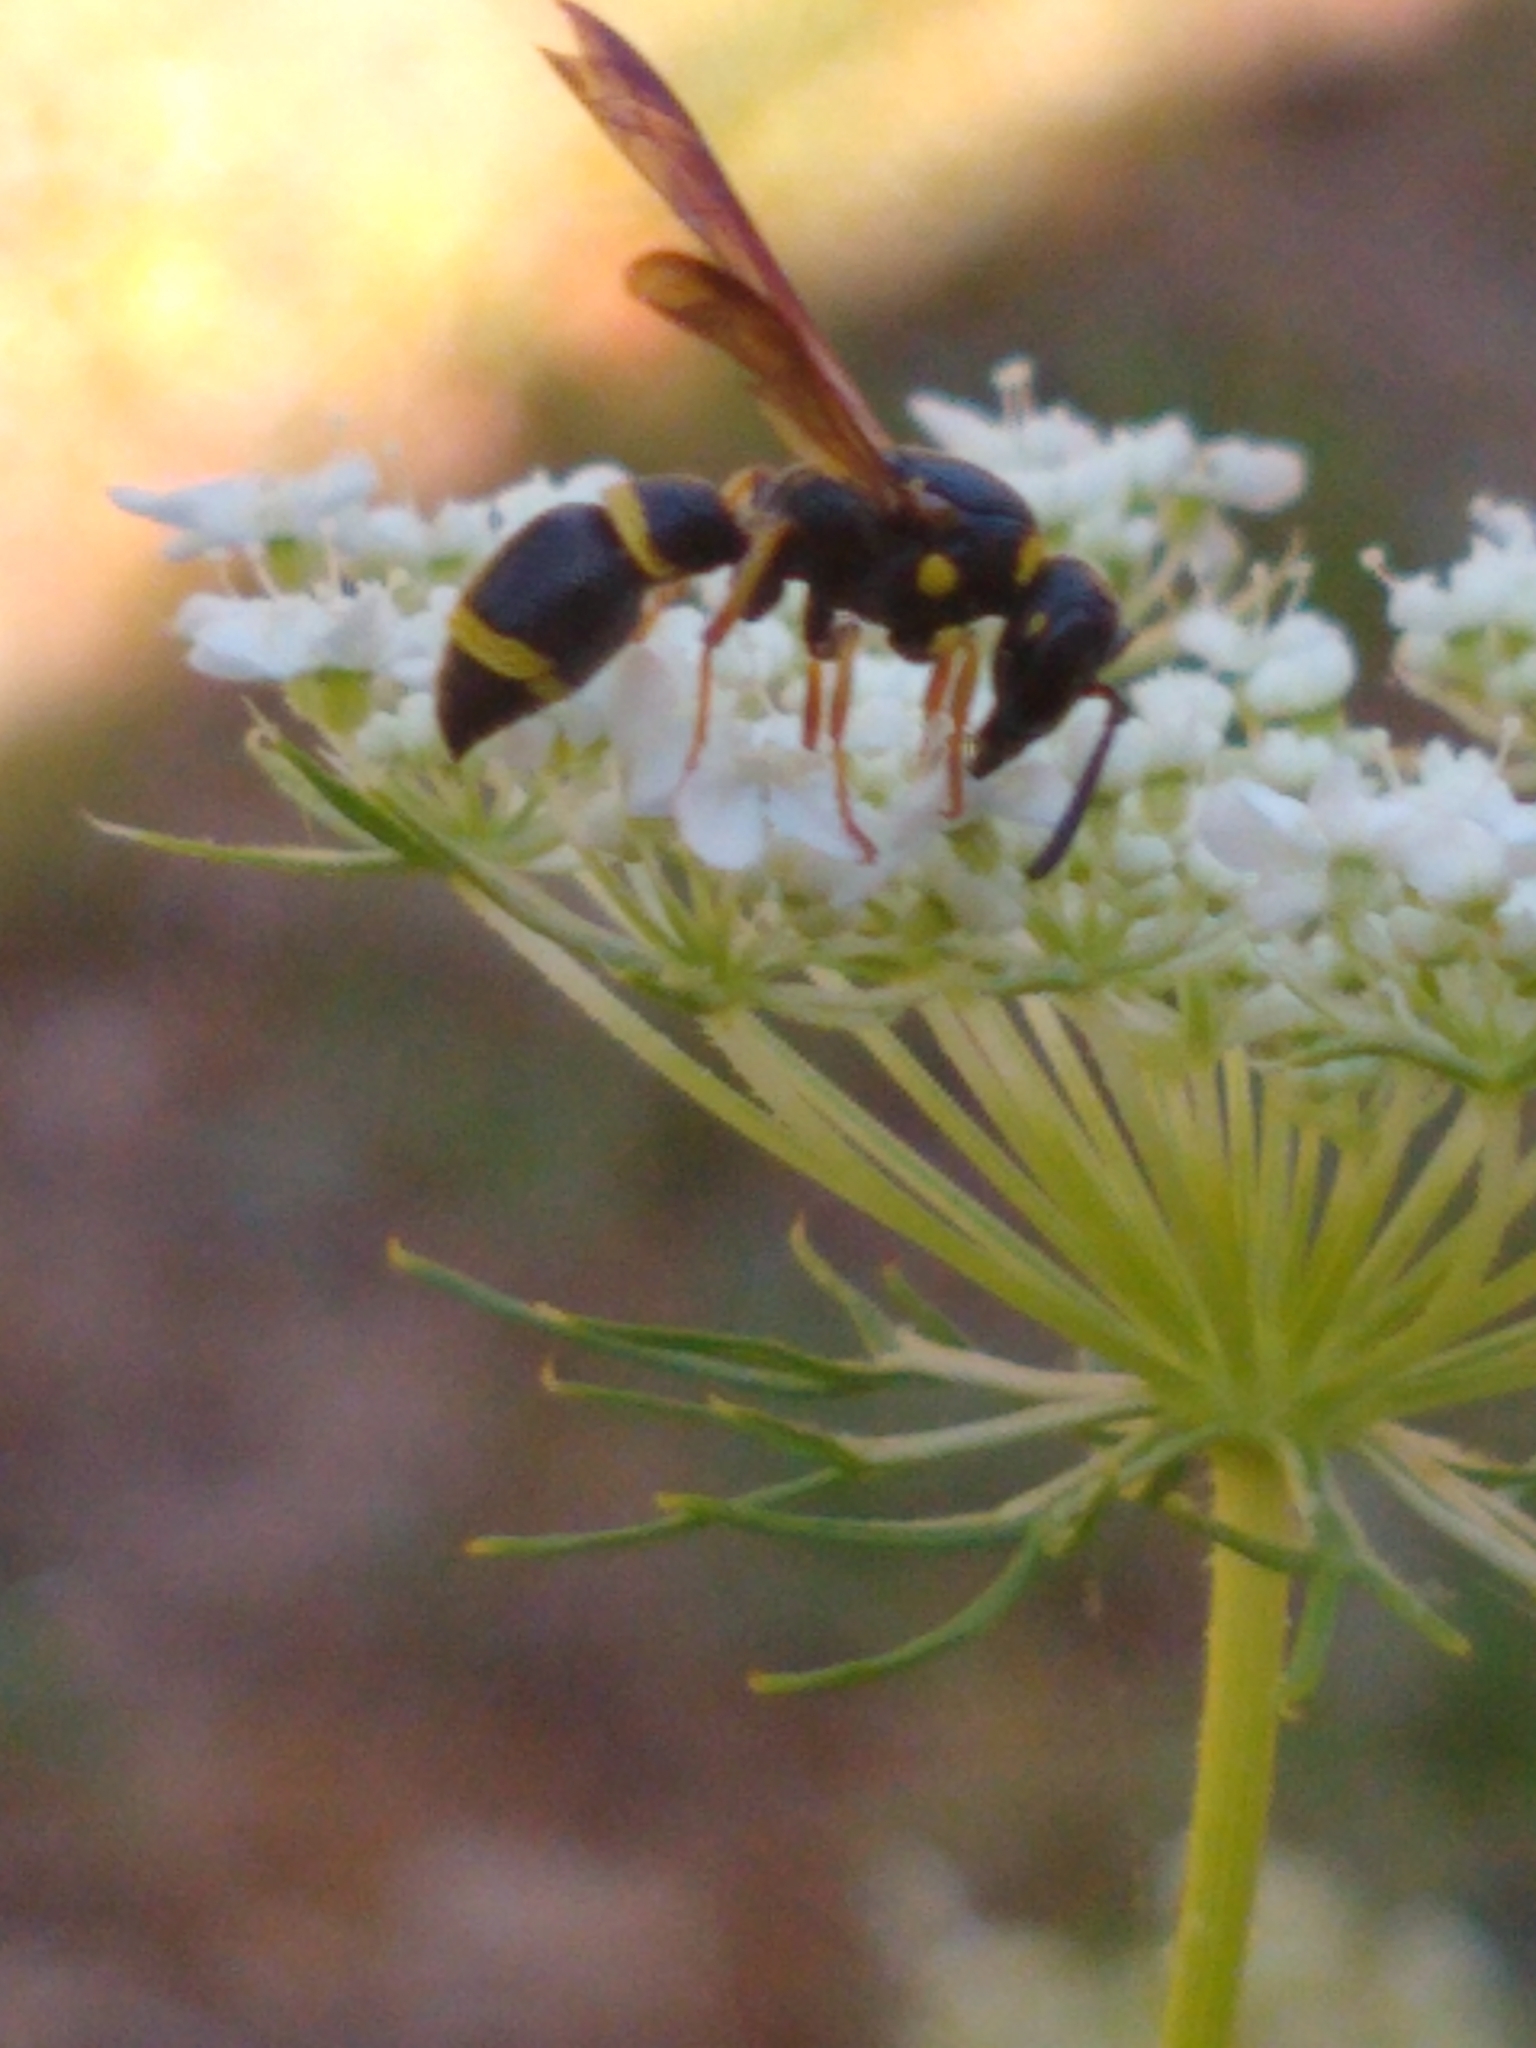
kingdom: Animalia
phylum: Arthropoda
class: Insecta
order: Hymenoptera
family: Eumenidae
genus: Parancistrocerus
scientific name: Parancistrocerus perennis
